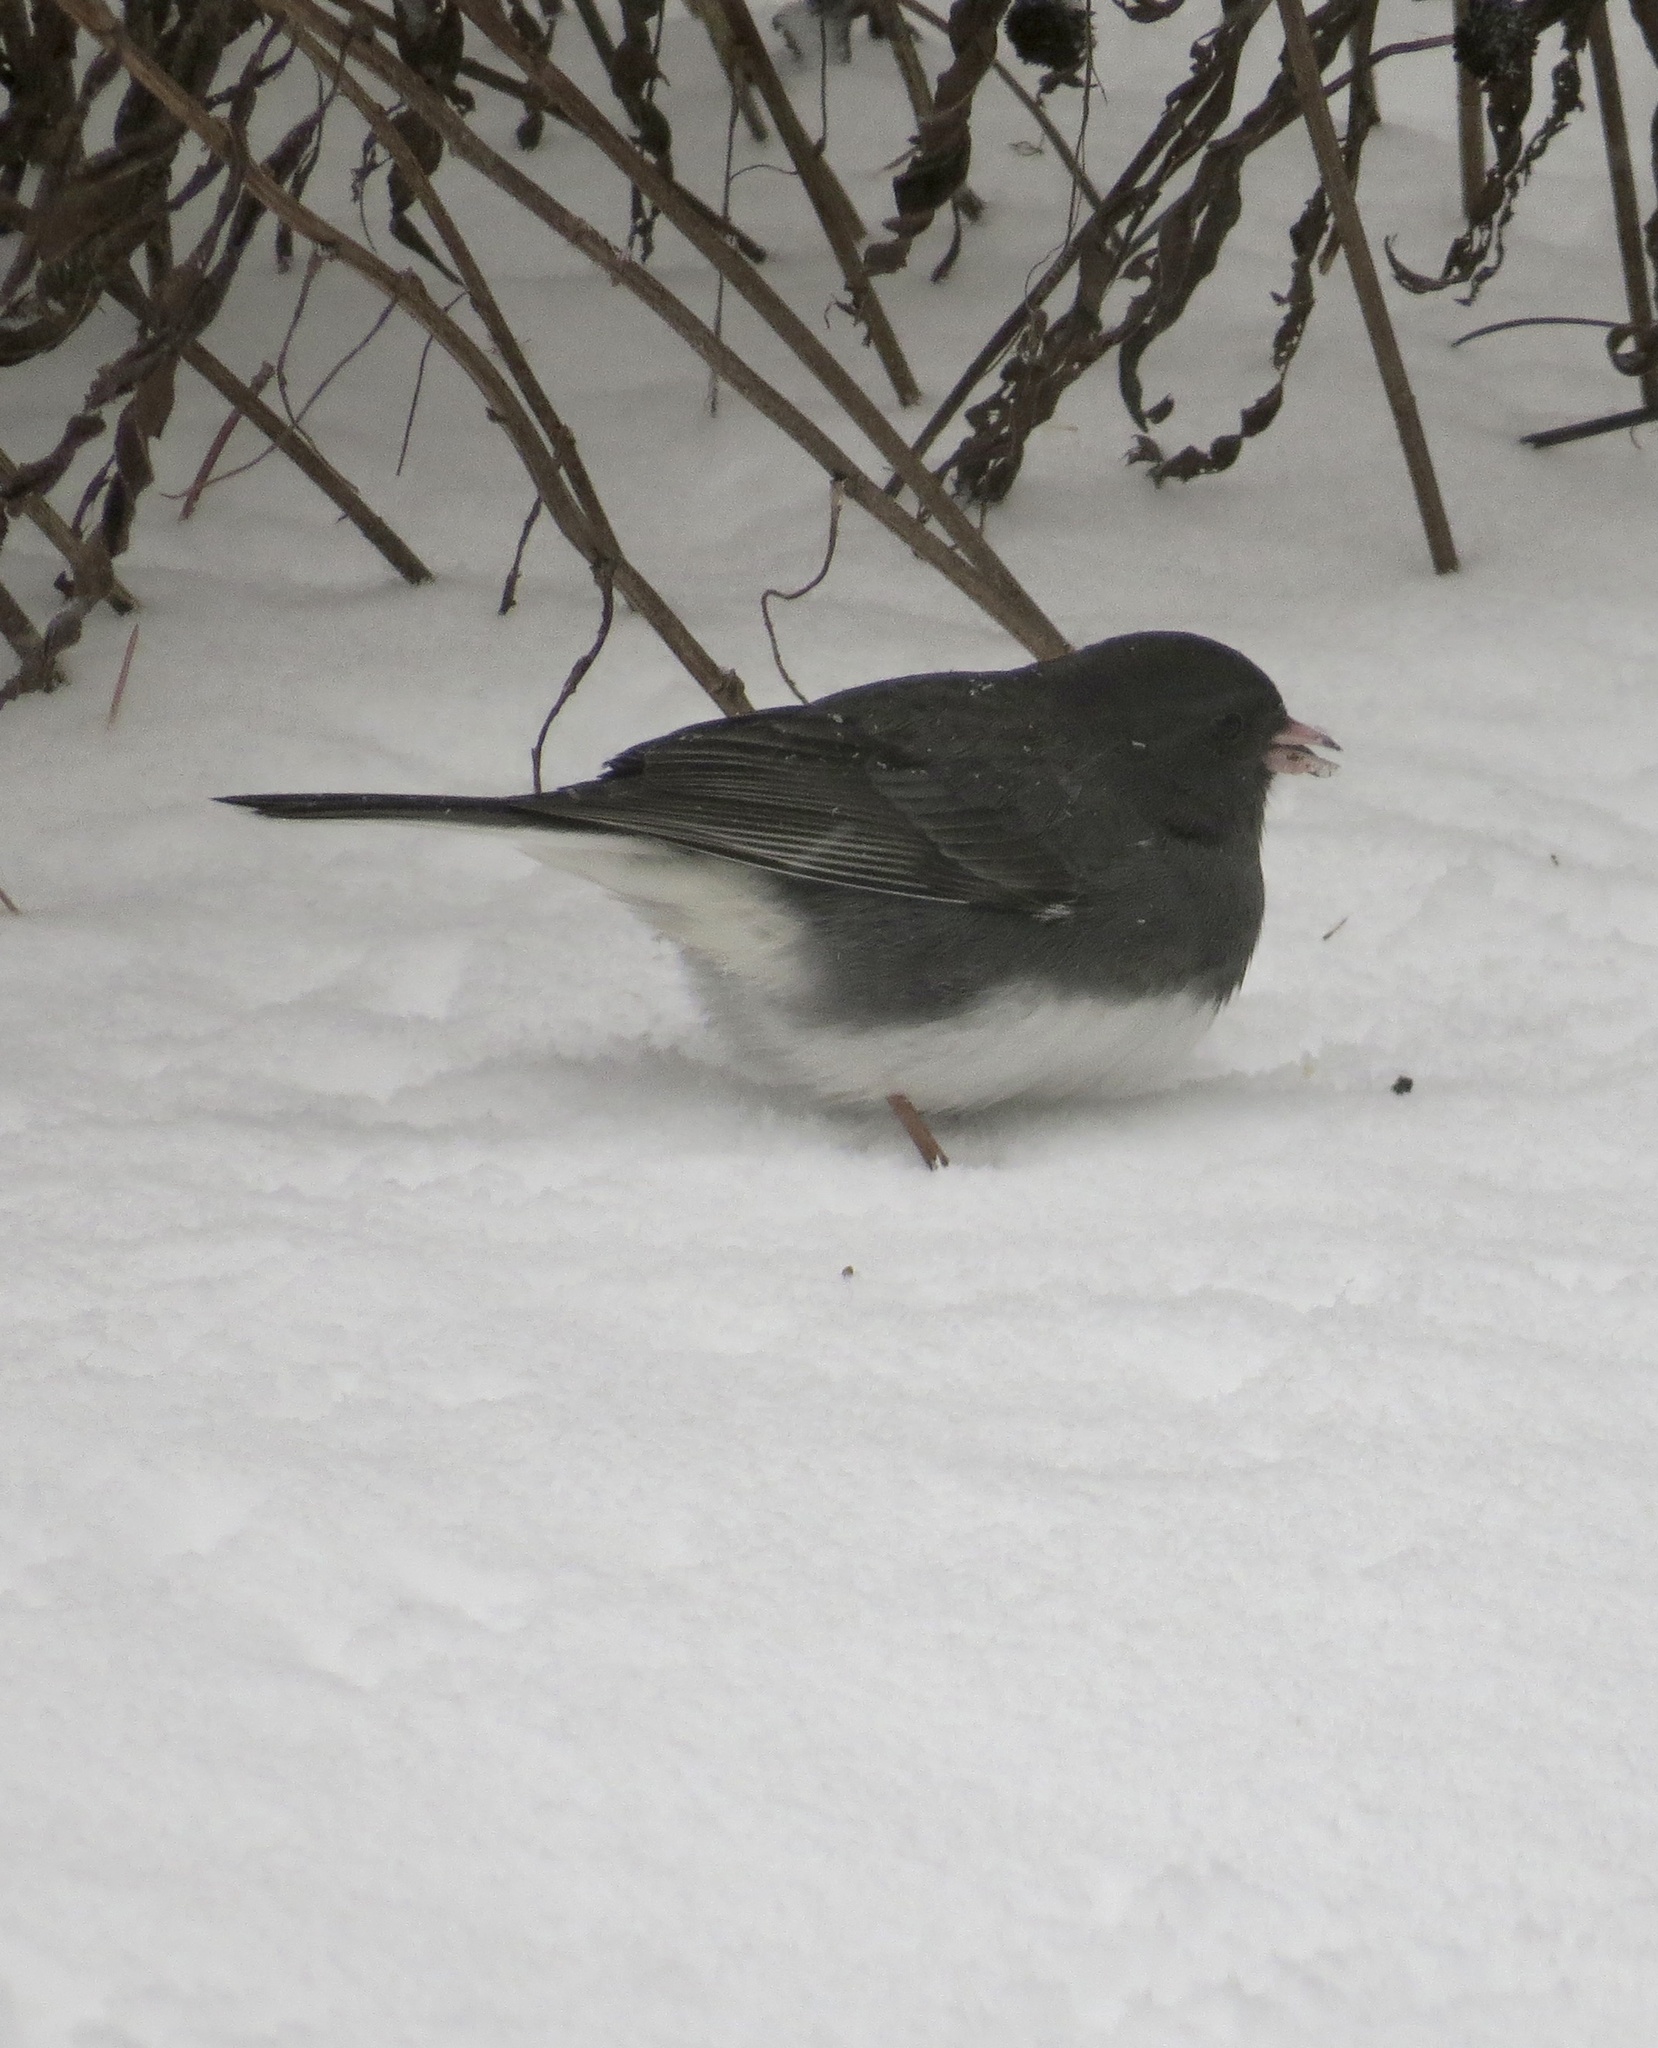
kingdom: Animalia
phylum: Chordata
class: Aves
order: Passeriformes
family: Passerellidae
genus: Junco
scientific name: Junco hyemalis
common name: Dark-eyed junco
